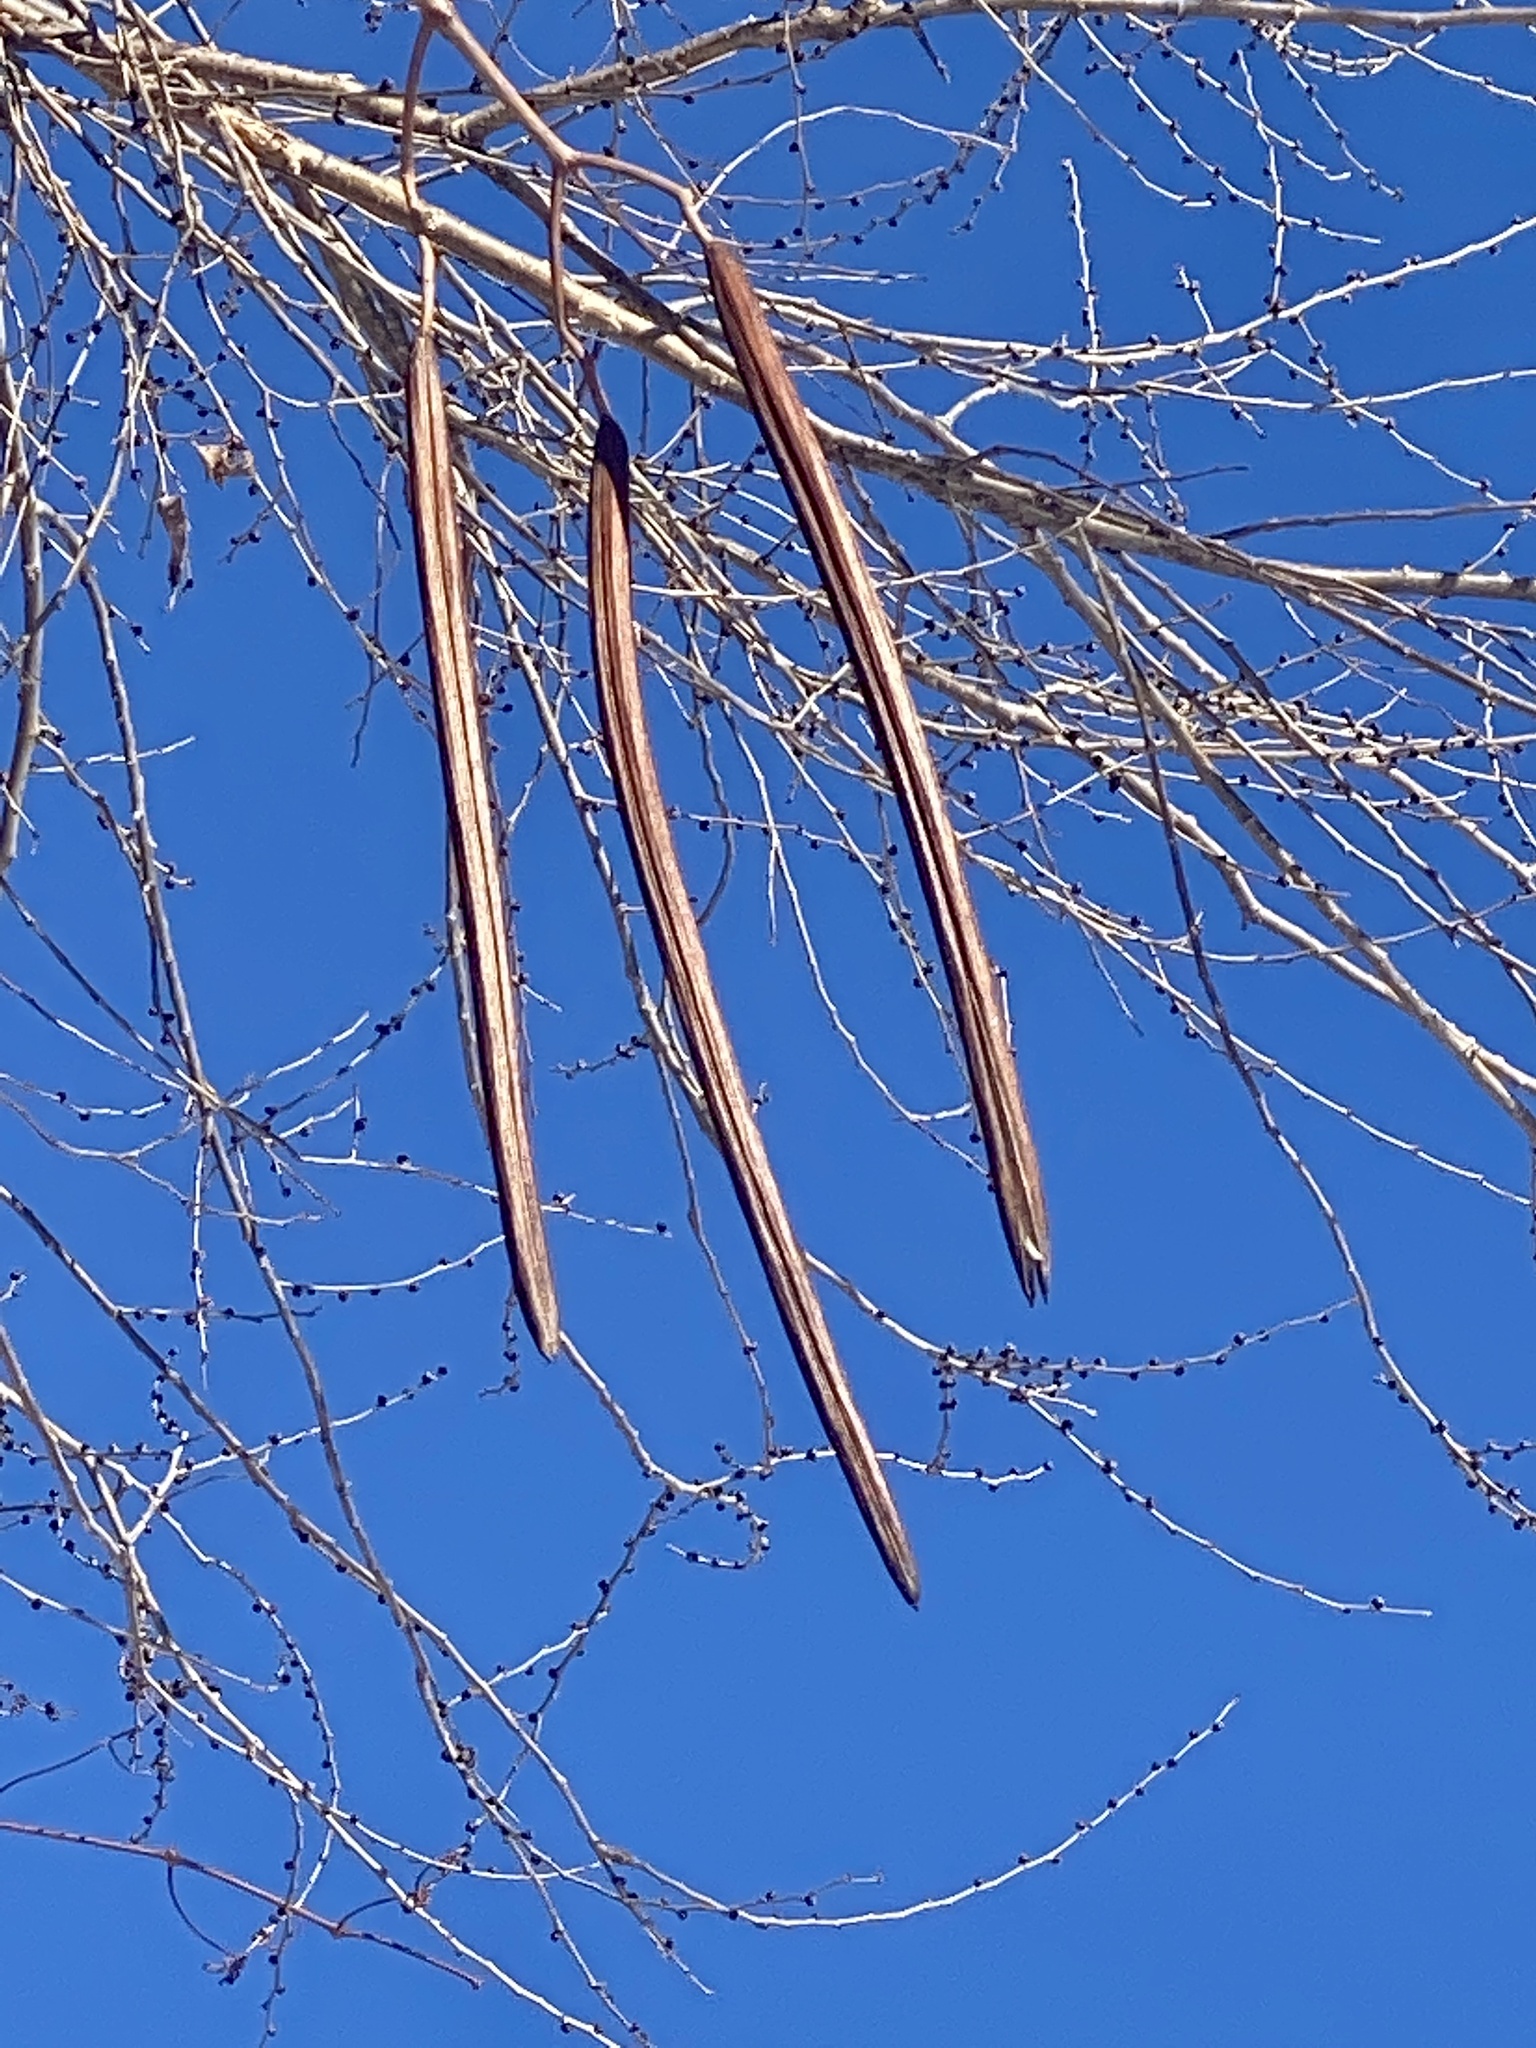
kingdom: Plantae
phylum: Tracheophyta
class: Magnoliopsida
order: Lamiales
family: Bignoniaceae
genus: Catalpa
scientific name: Catalpa
